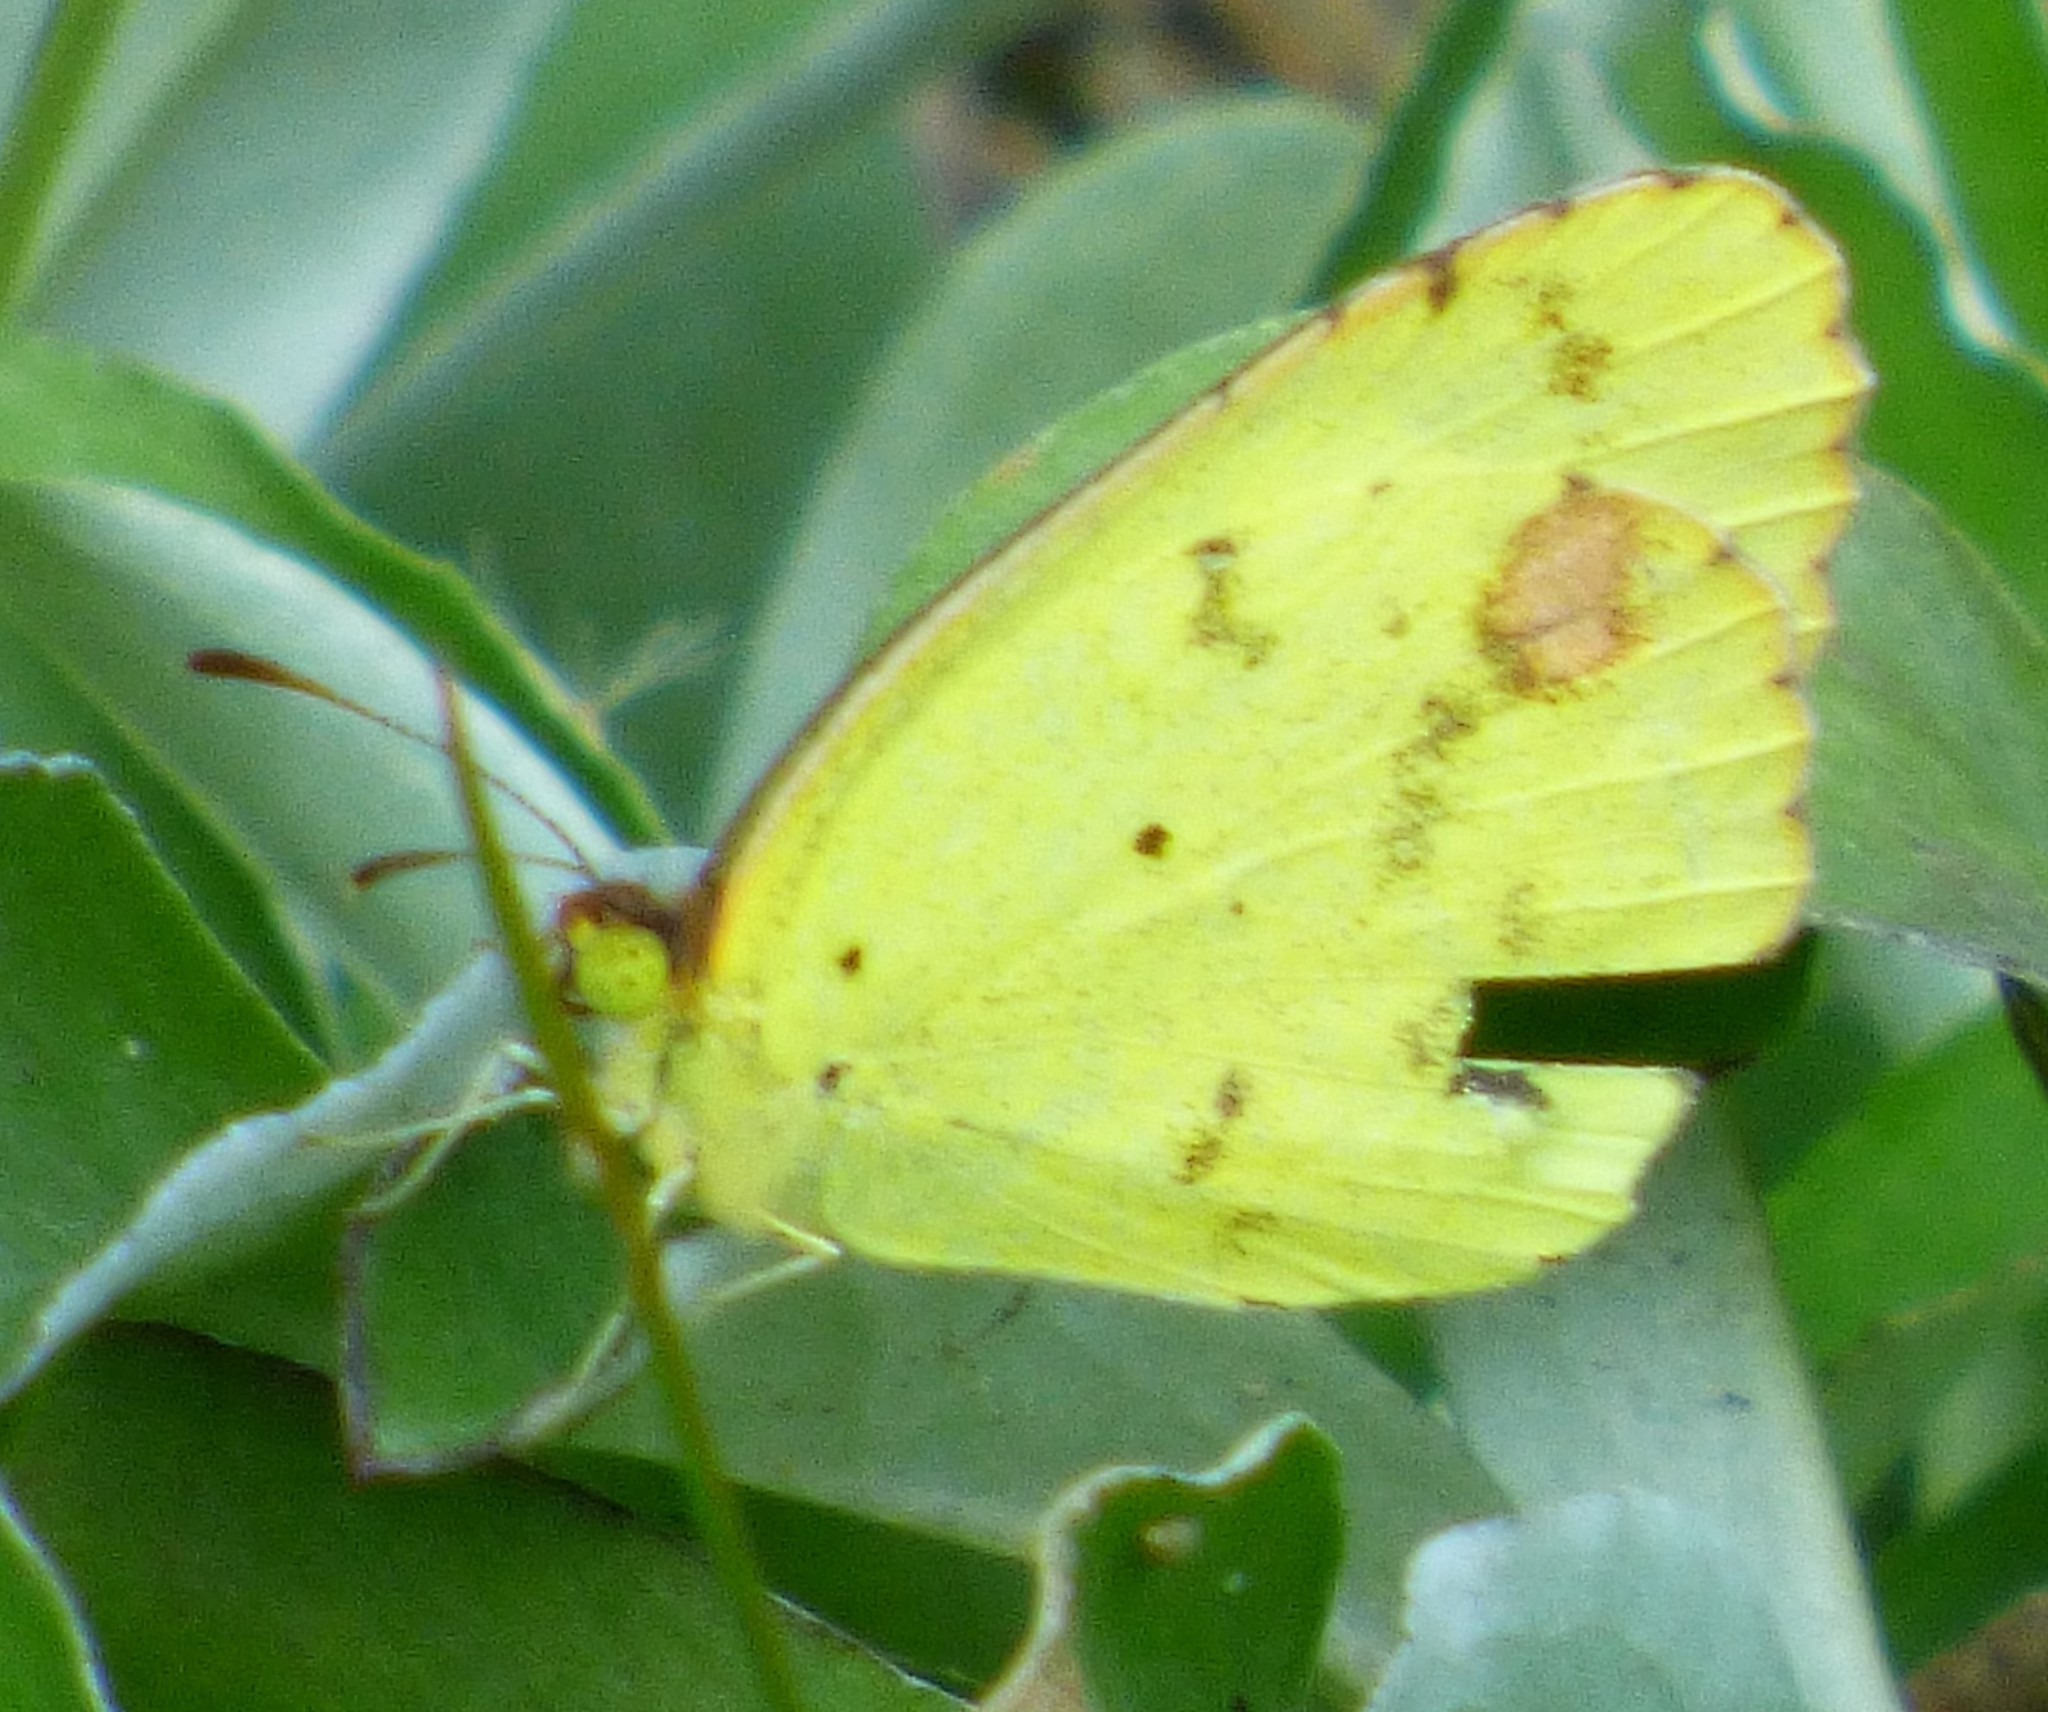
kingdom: Animalia
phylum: Arthropoda
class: Insecta
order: Lepidoptera
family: Pieridae
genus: Pyrisitia
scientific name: Pyrisitia lisa
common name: Little yellow
